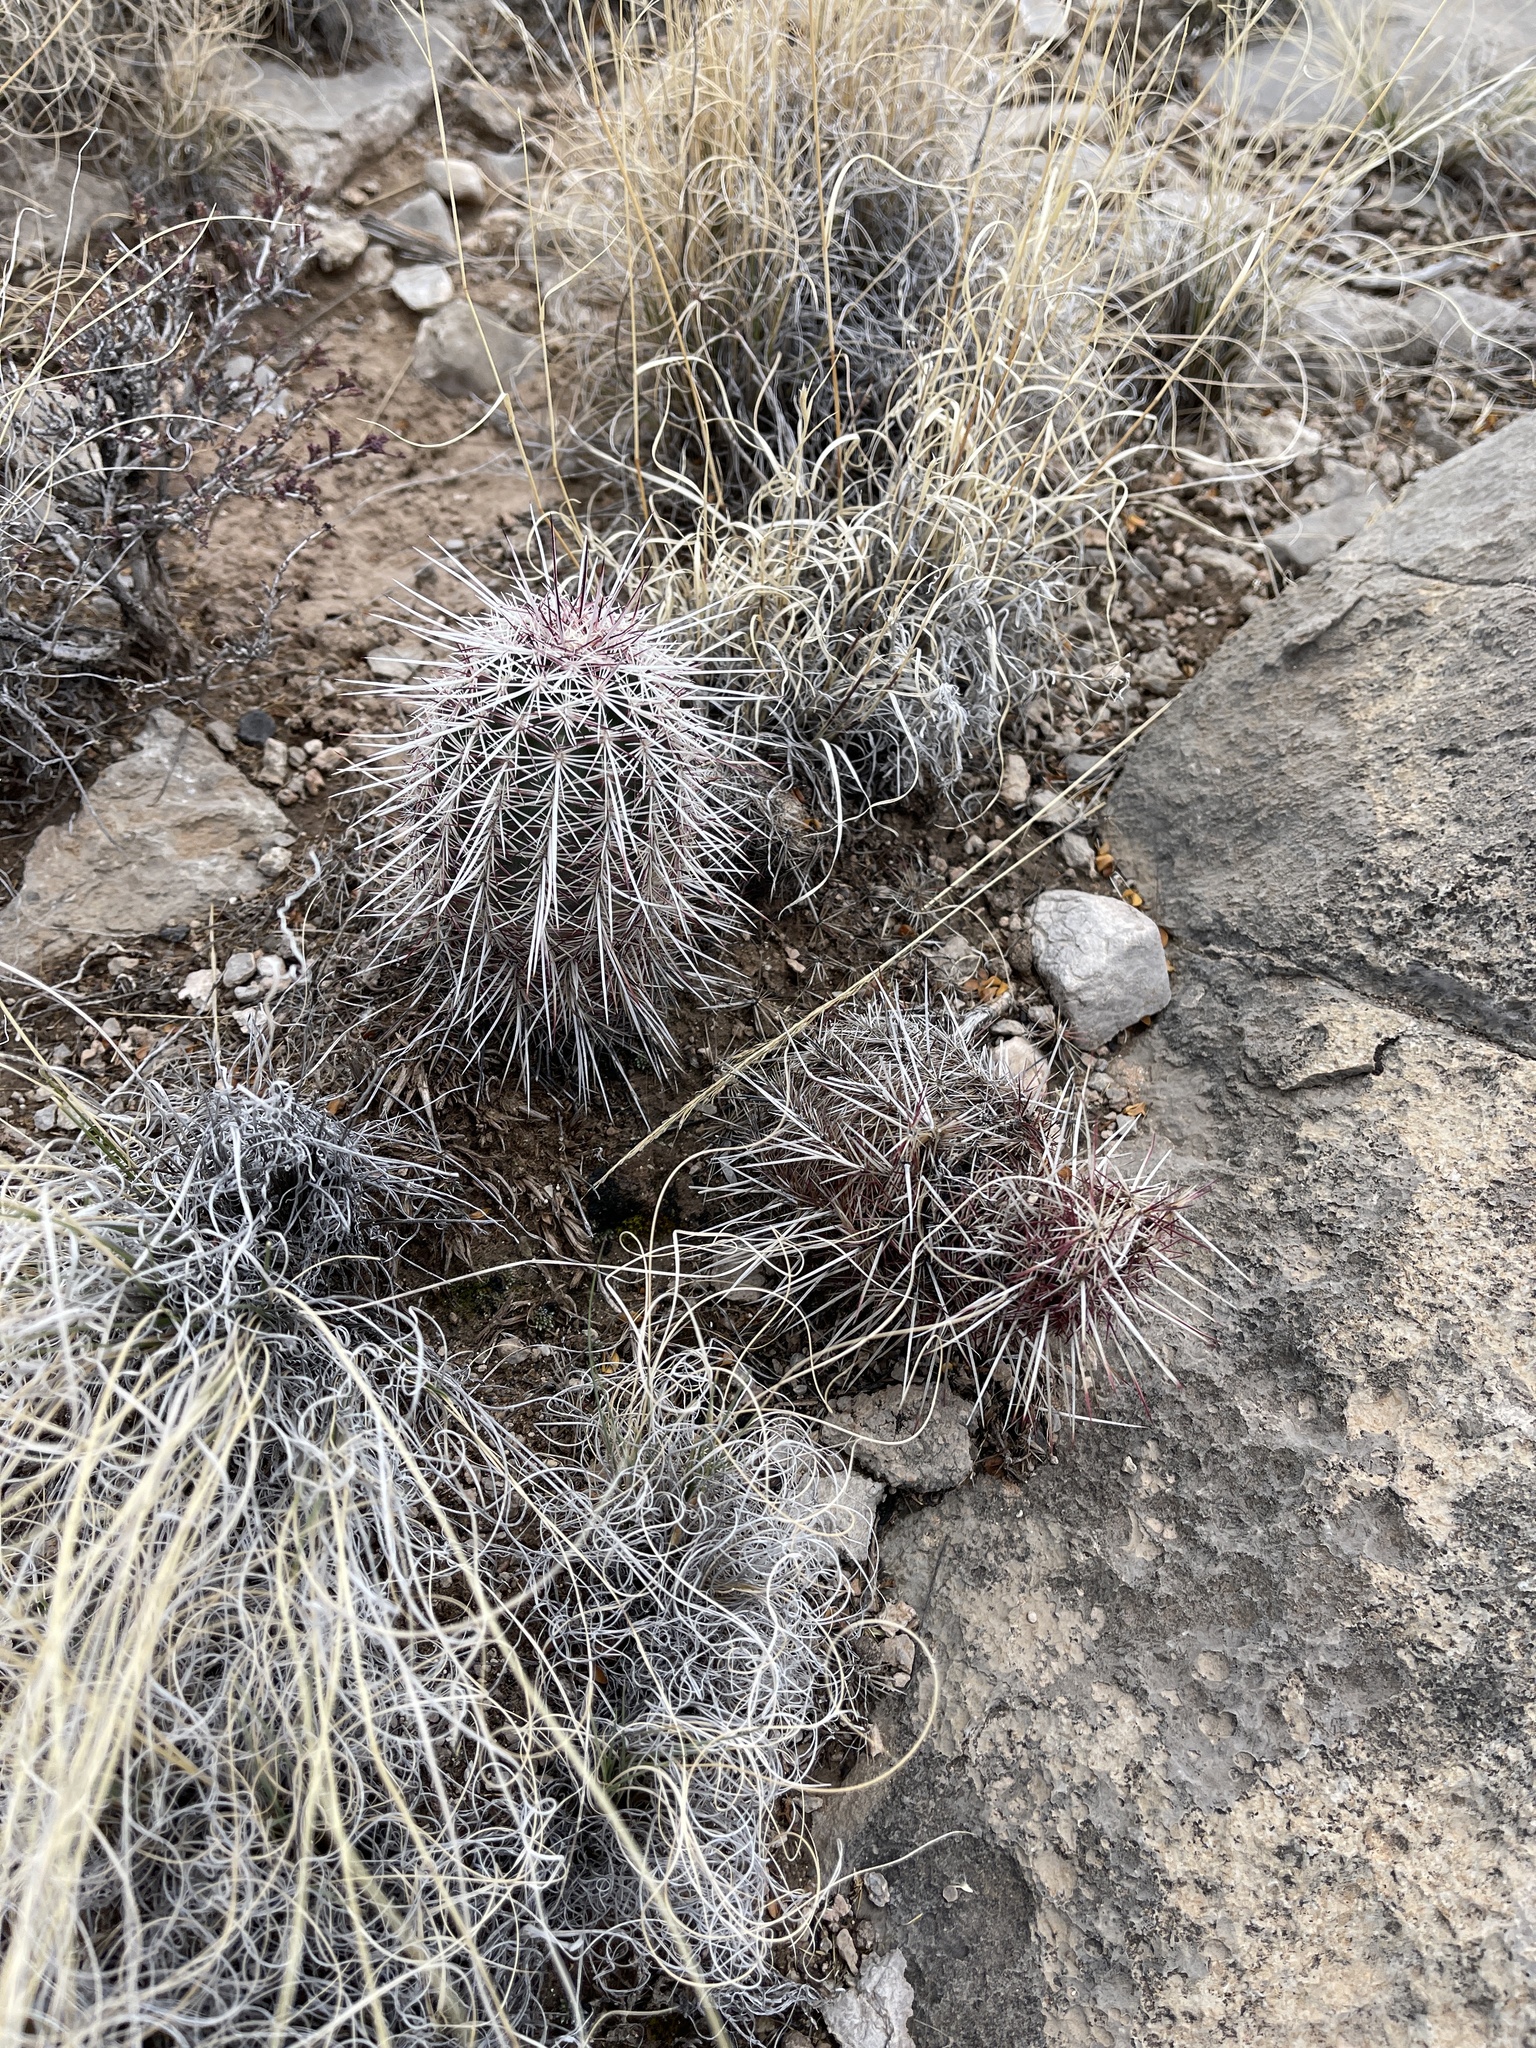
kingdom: Plantae
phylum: Tracheophyta
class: Magnoliopsida
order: Caryophyllales
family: Cactaceae
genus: Echinocereus
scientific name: Echinocereus viridiflorus
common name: Nylon hedgehog cactus
